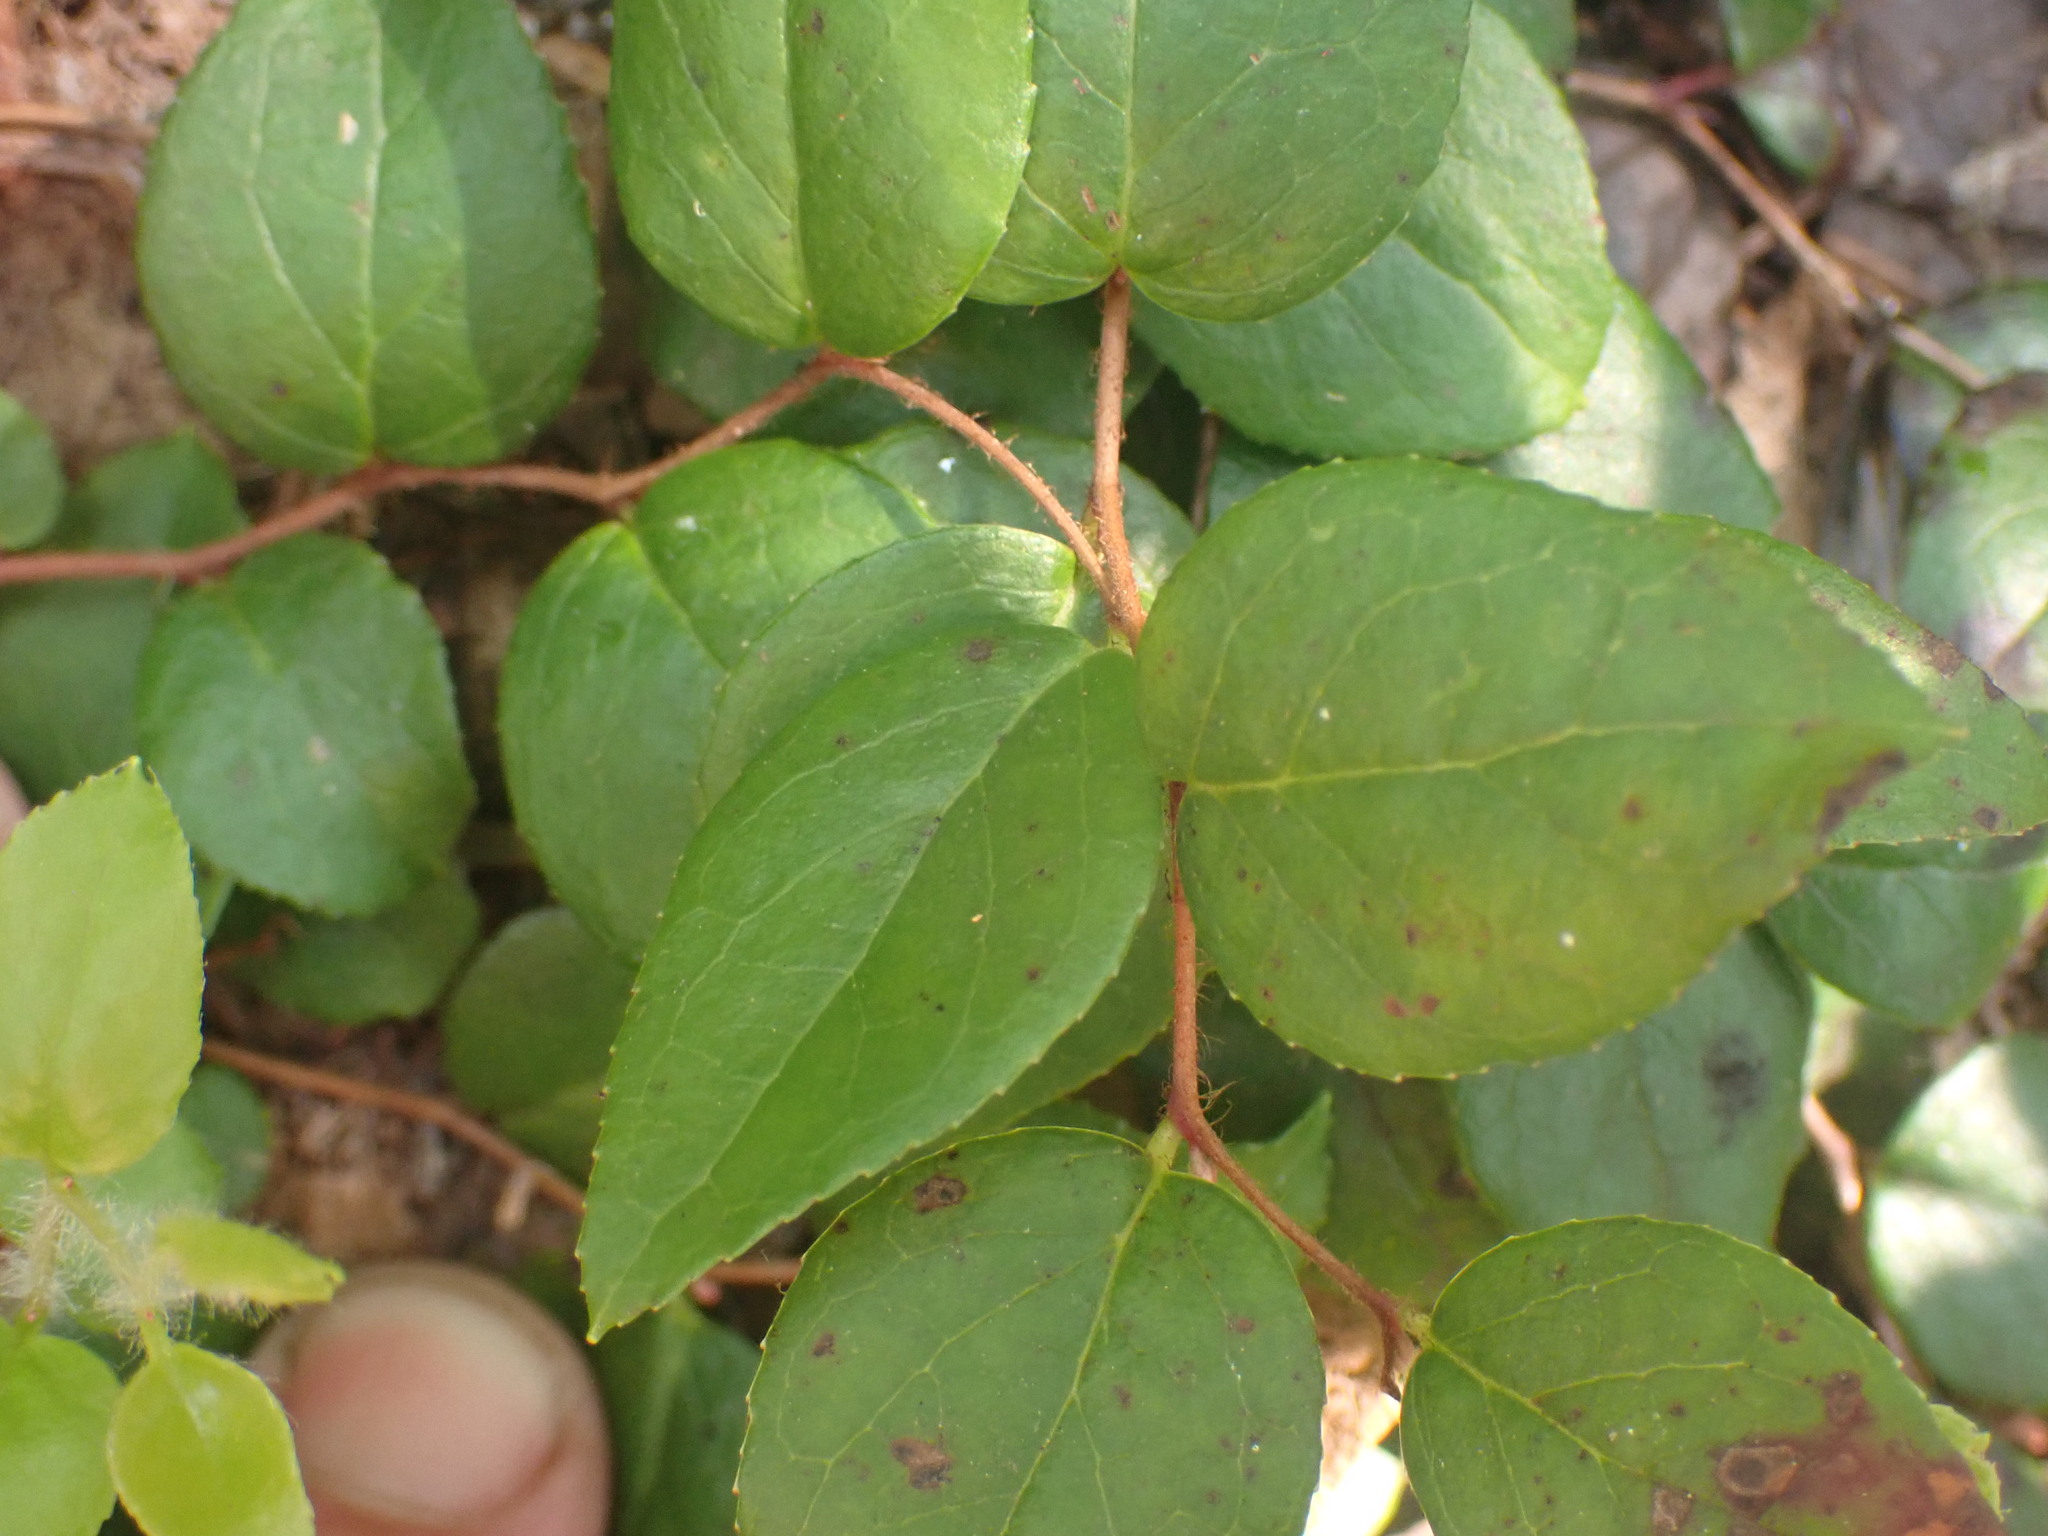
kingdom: Plantae
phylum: Tracheophyta
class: Magnoliopsida
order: Ericales
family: Ericaceae
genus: Gaultheria
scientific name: Gaultheria ovatifolia
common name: Oregon wintergreen
